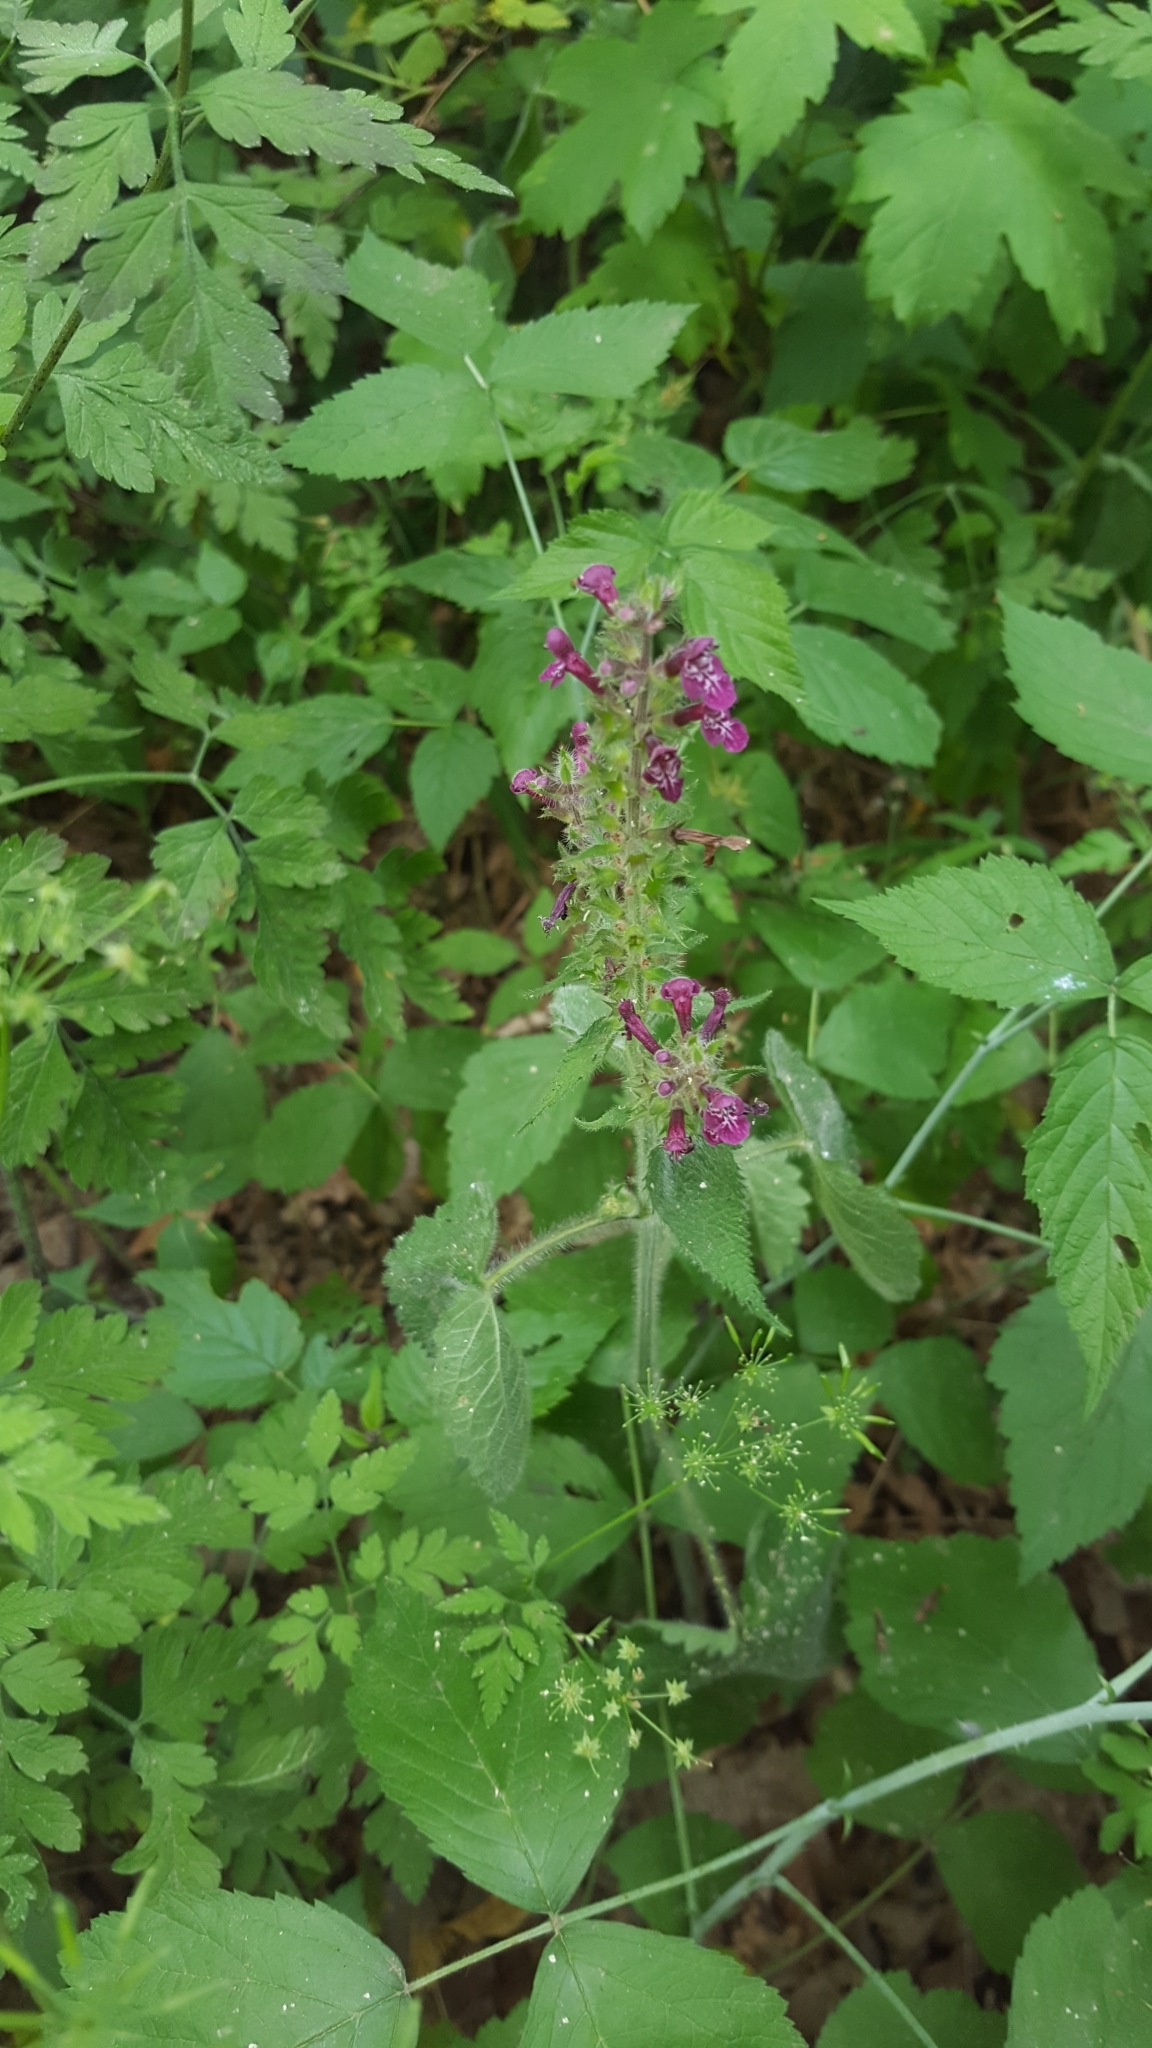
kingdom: Plantae
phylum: Tracheophyta
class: Magnoliopsida
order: Lamiales
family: Lamiaceae
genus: Stachys
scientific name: Stachys sylvatica
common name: Hedge woundwort
